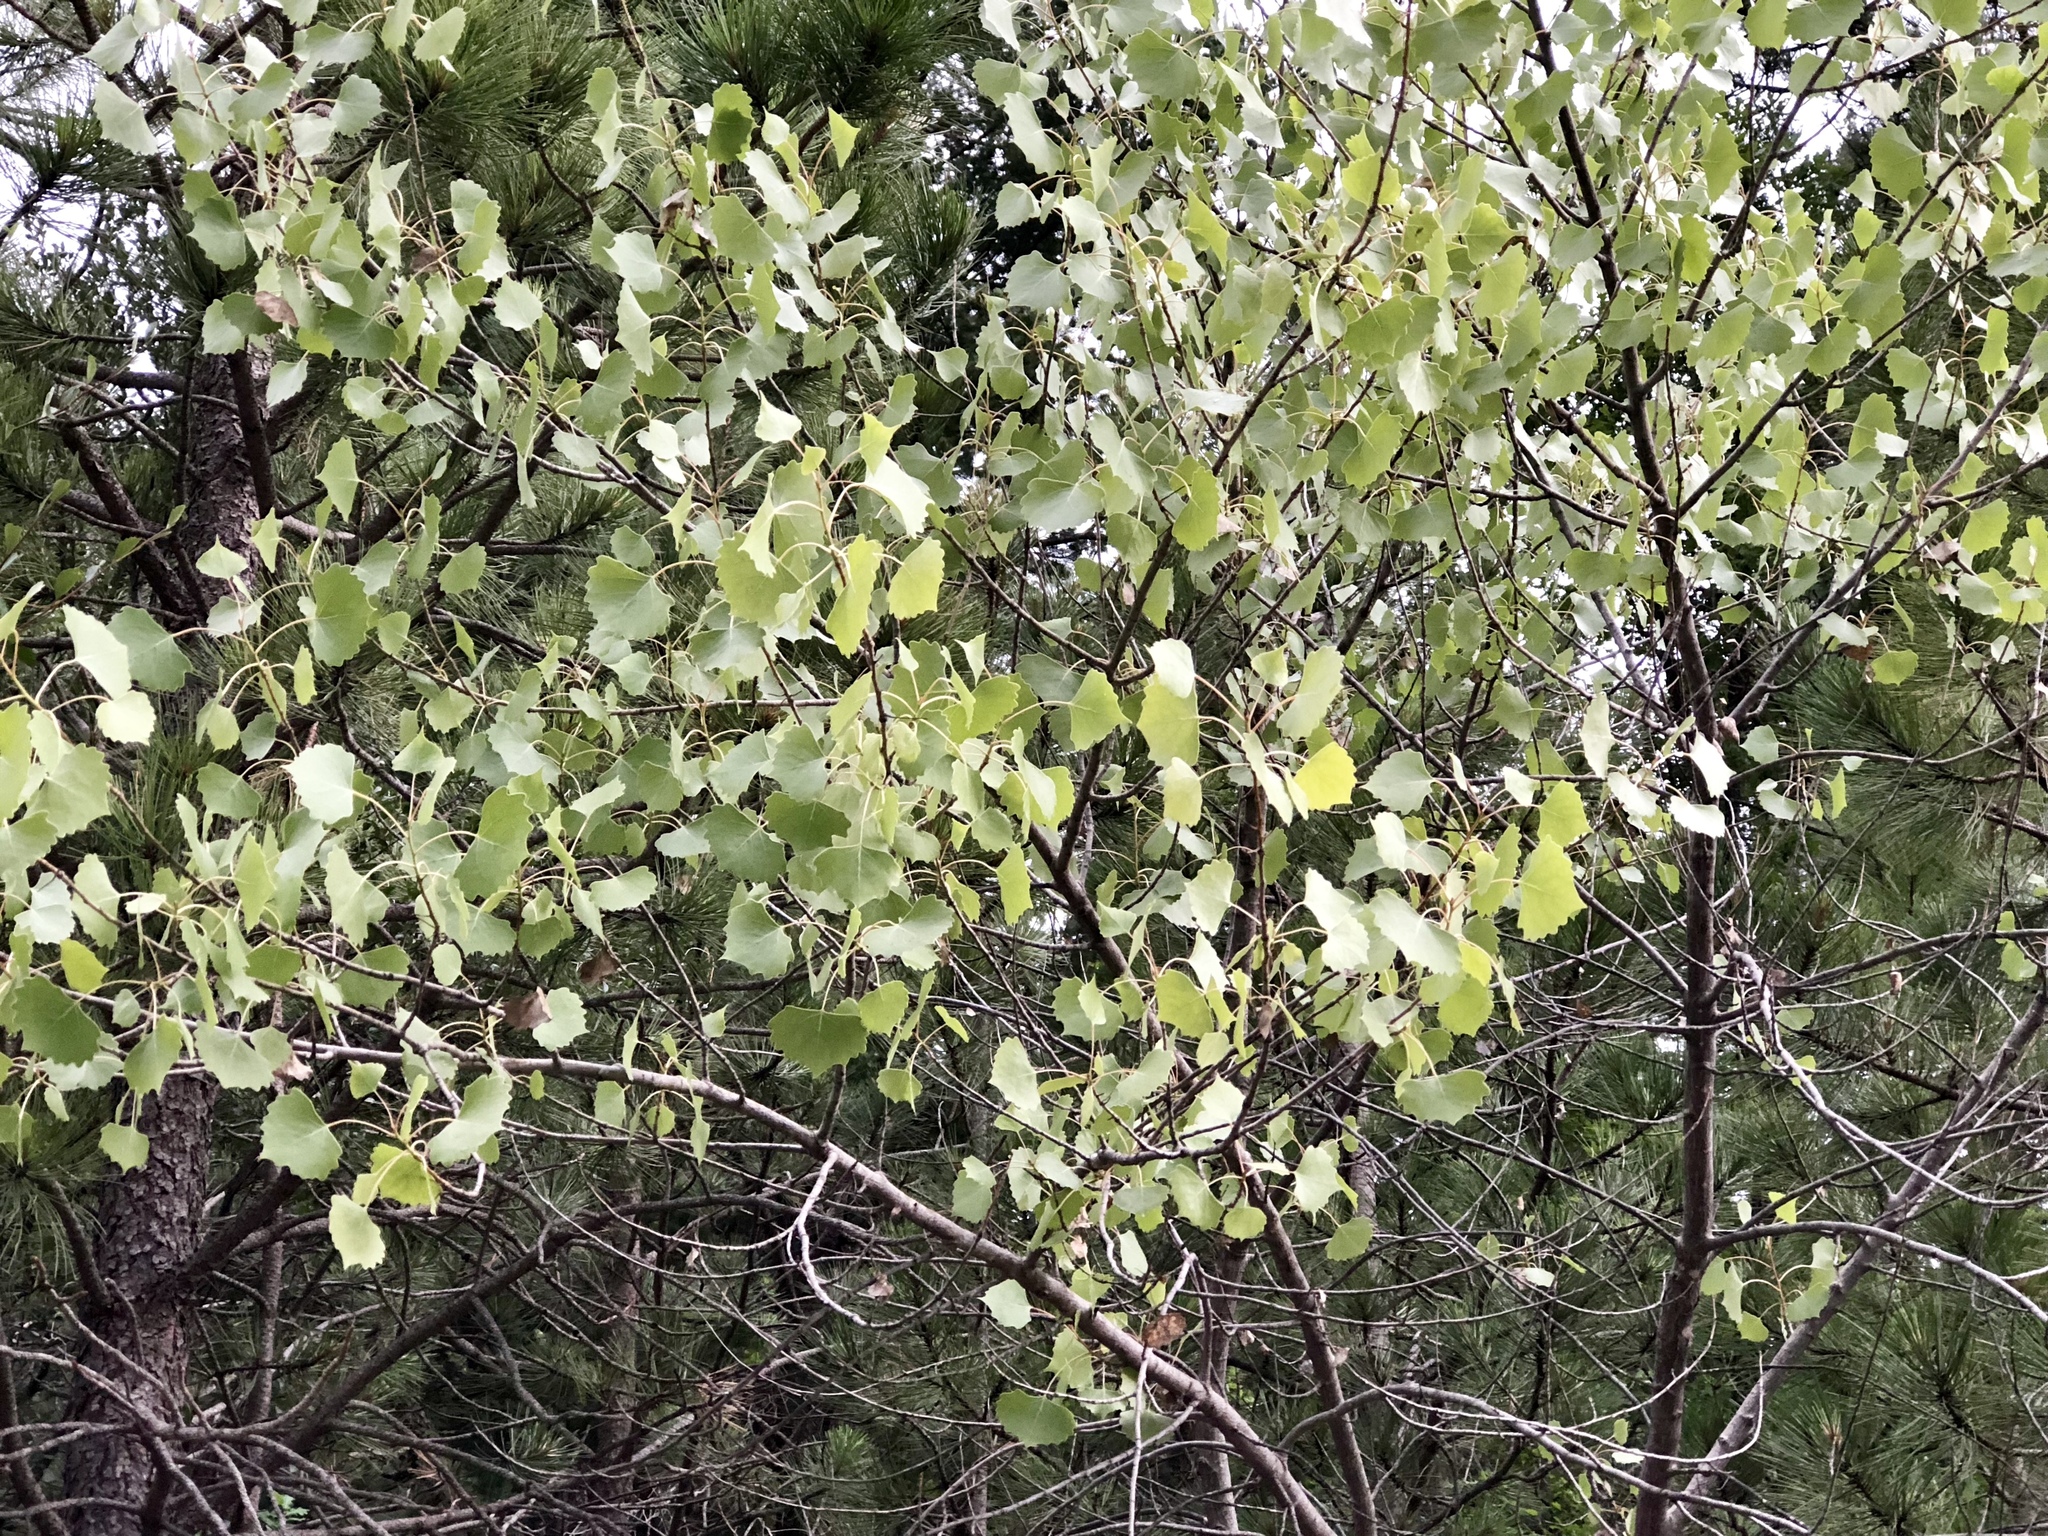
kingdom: Plantae
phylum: Tracheophyta
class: Magnoliopsida
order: Malpighiales
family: Salicaceae
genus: Populus
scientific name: Populus tremuloides
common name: Quaking aspen
